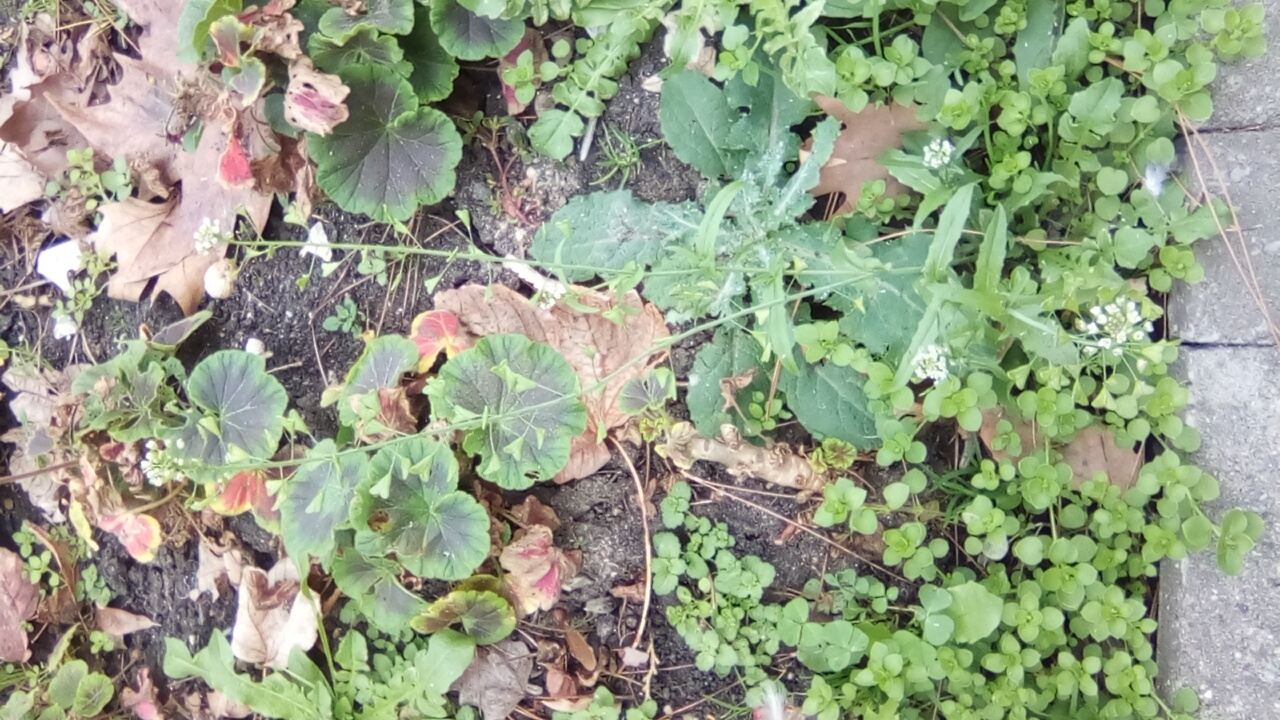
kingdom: Plantae
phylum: Tracheophyta
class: Magnoliopsida
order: Brassicales
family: Brassicaceae
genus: Capsella
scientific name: Capsella bursa-pastoris
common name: Shepherd's purse
